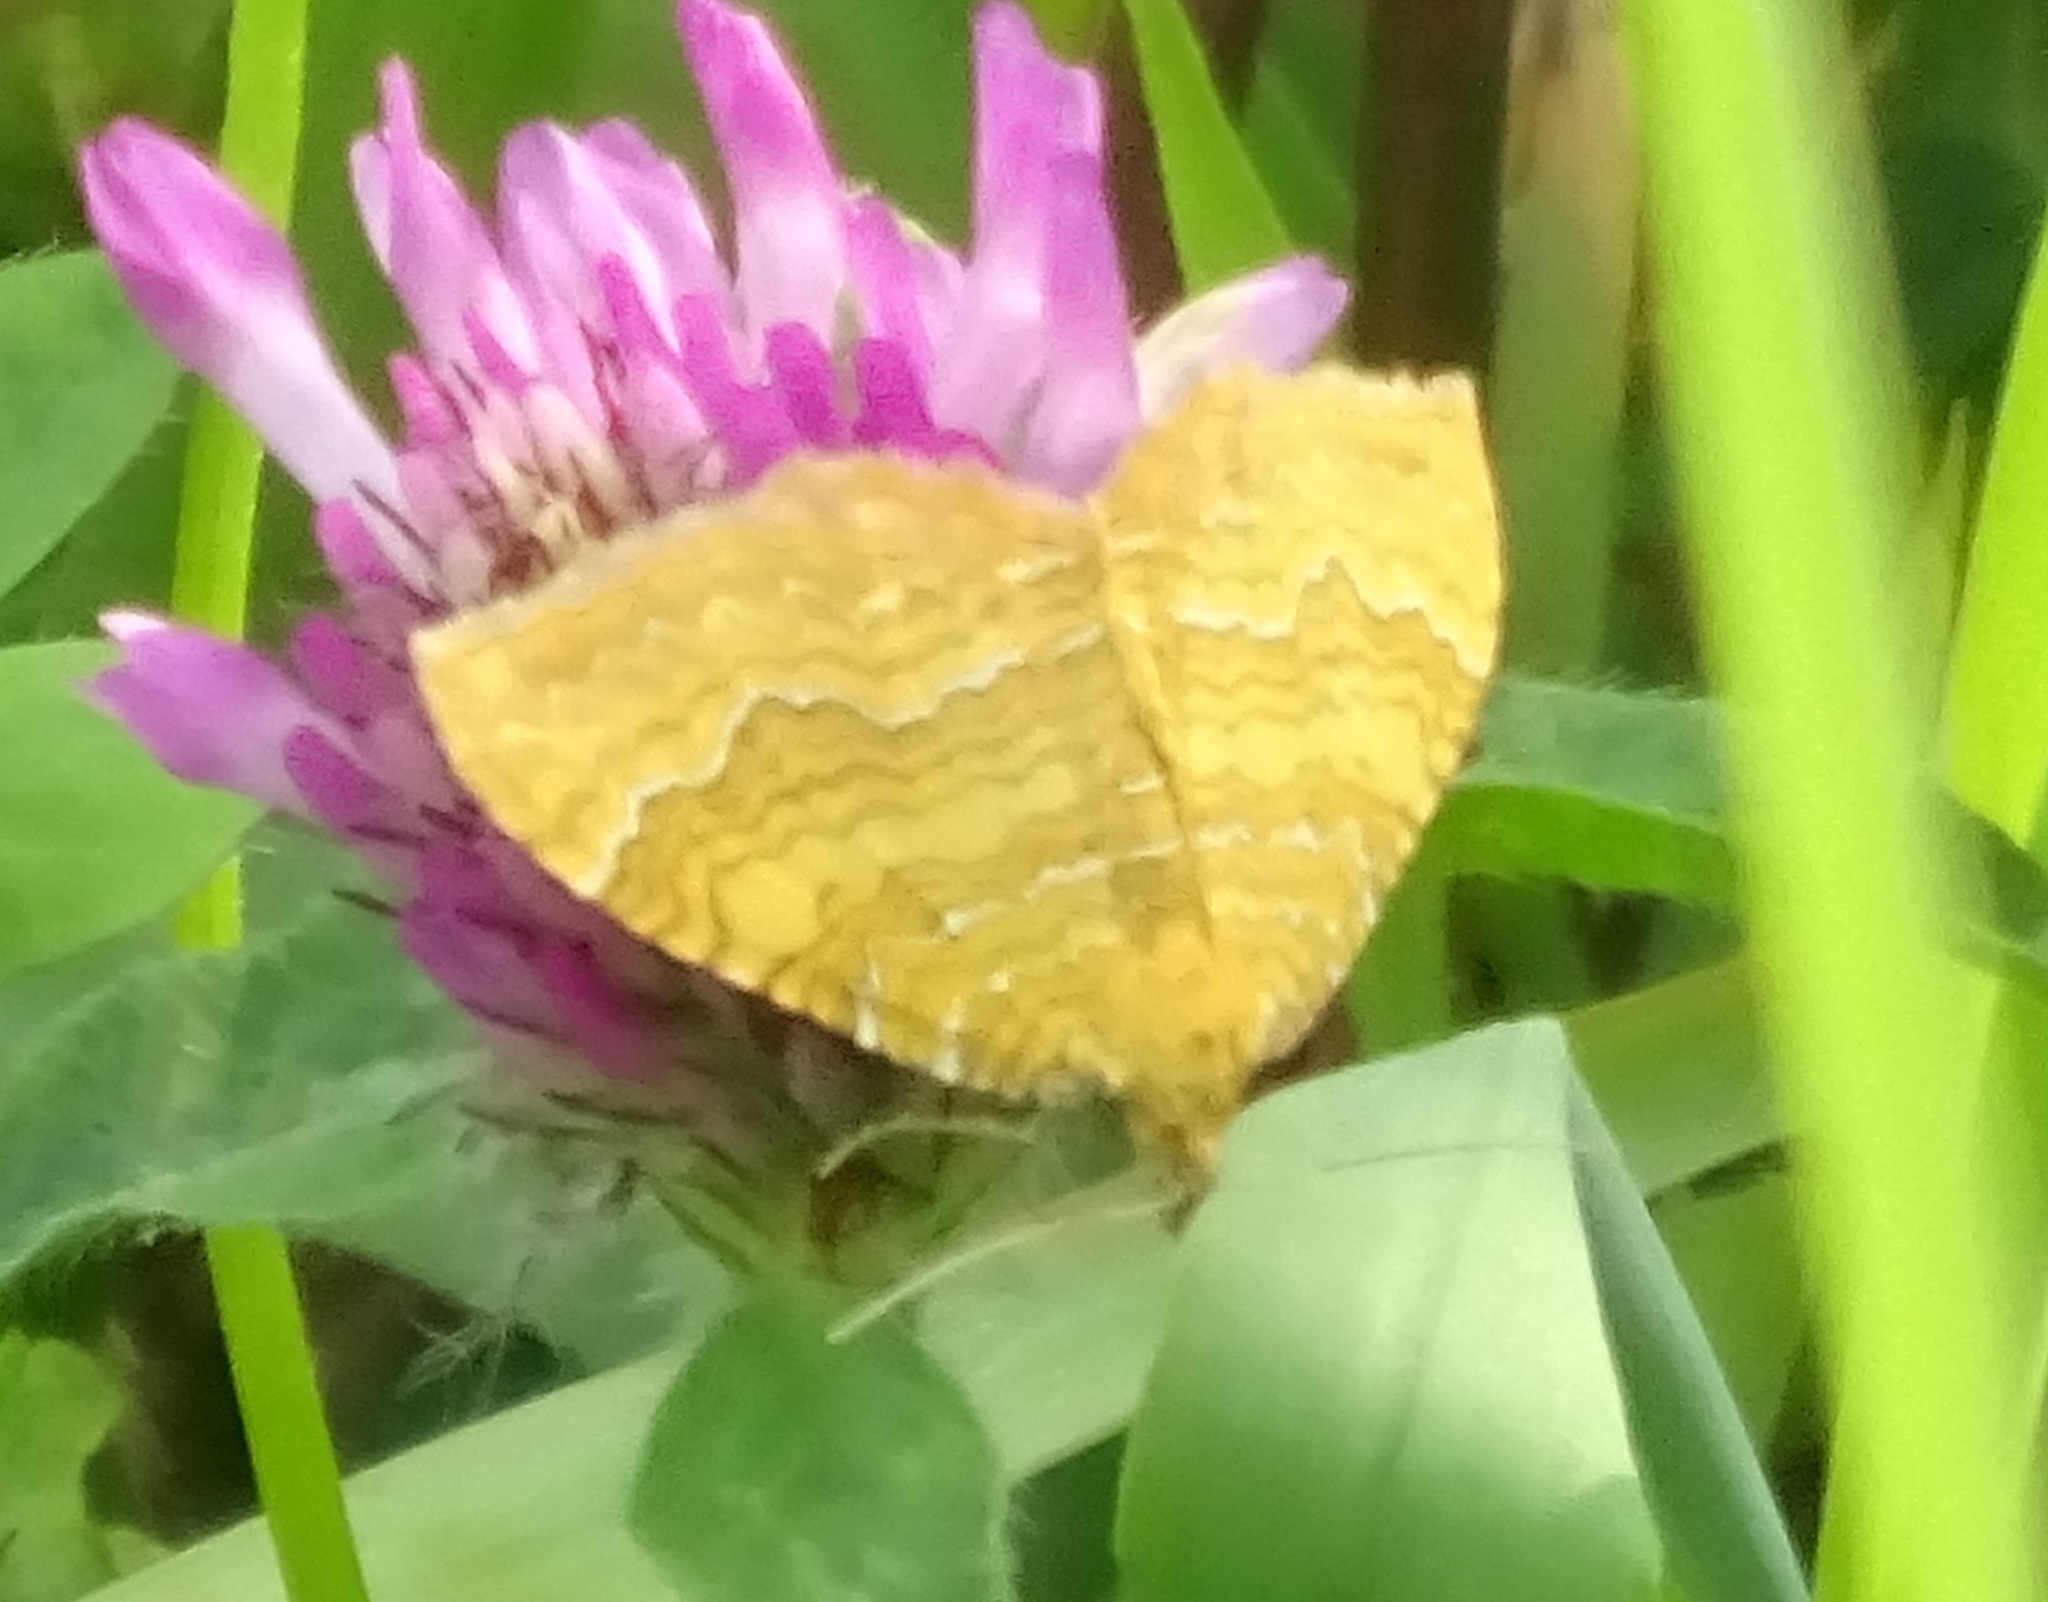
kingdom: Animalia
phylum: Arthropoda
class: Insecta
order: Lepidoptera
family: Geometridae
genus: Camptogramma
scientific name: Camptogramma bilineata
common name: Yellow shell
